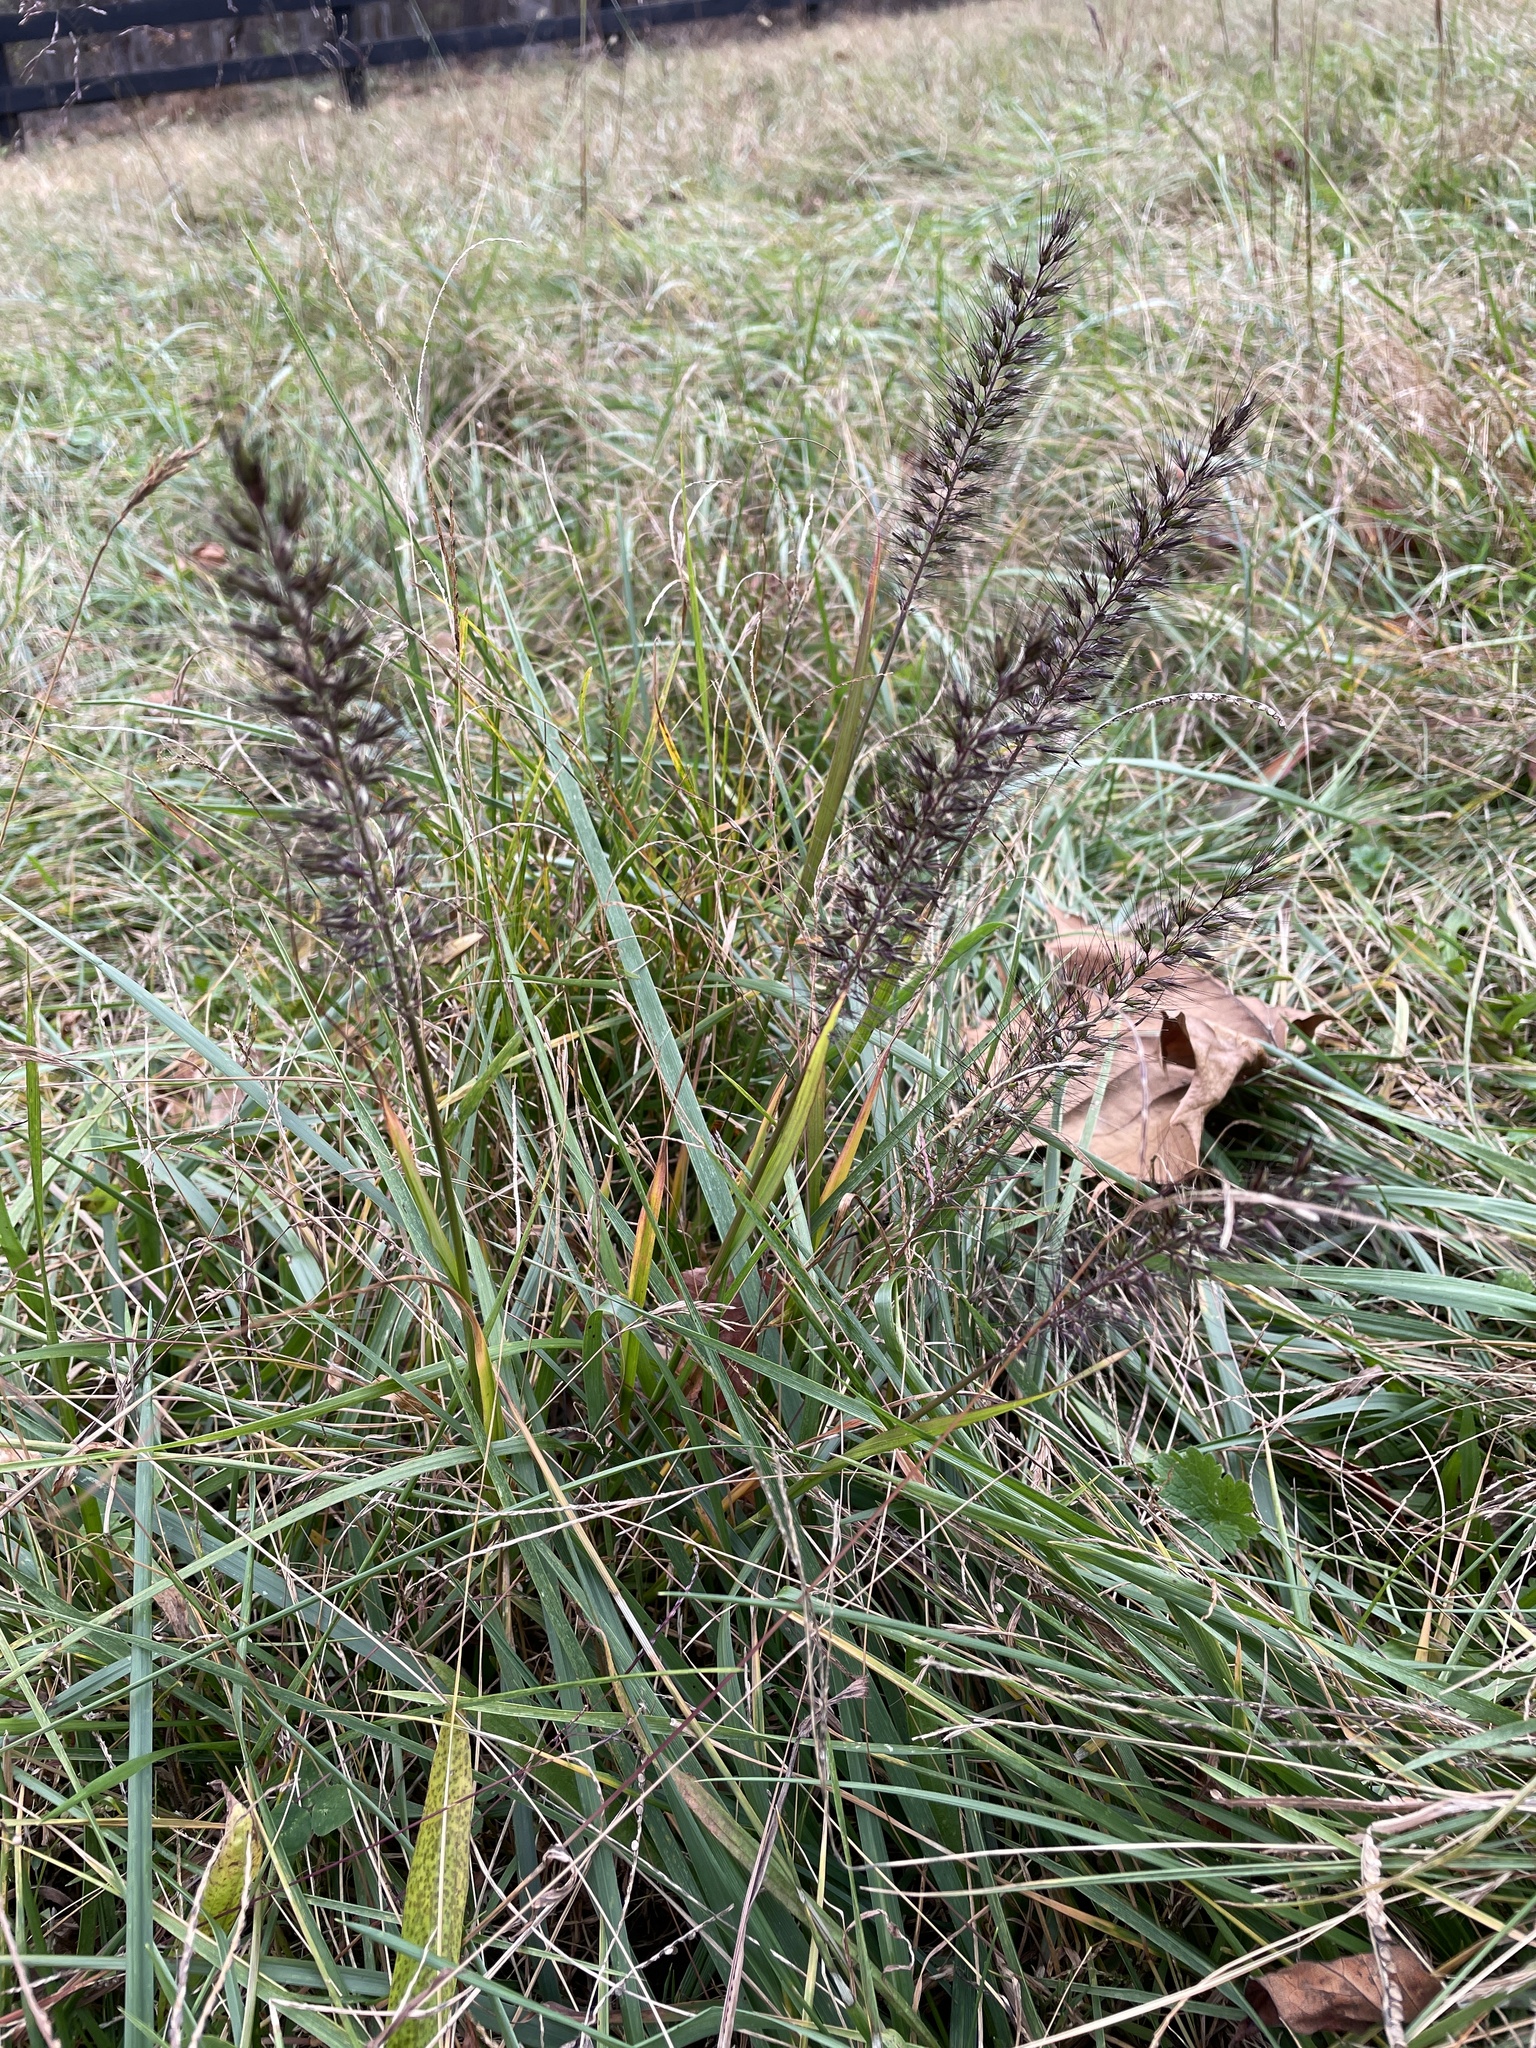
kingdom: Plantae
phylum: Tracheophyta
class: Liliopsida
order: Poales
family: Poaceae
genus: Cenchrus
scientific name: Cenchrus alopecuroides
